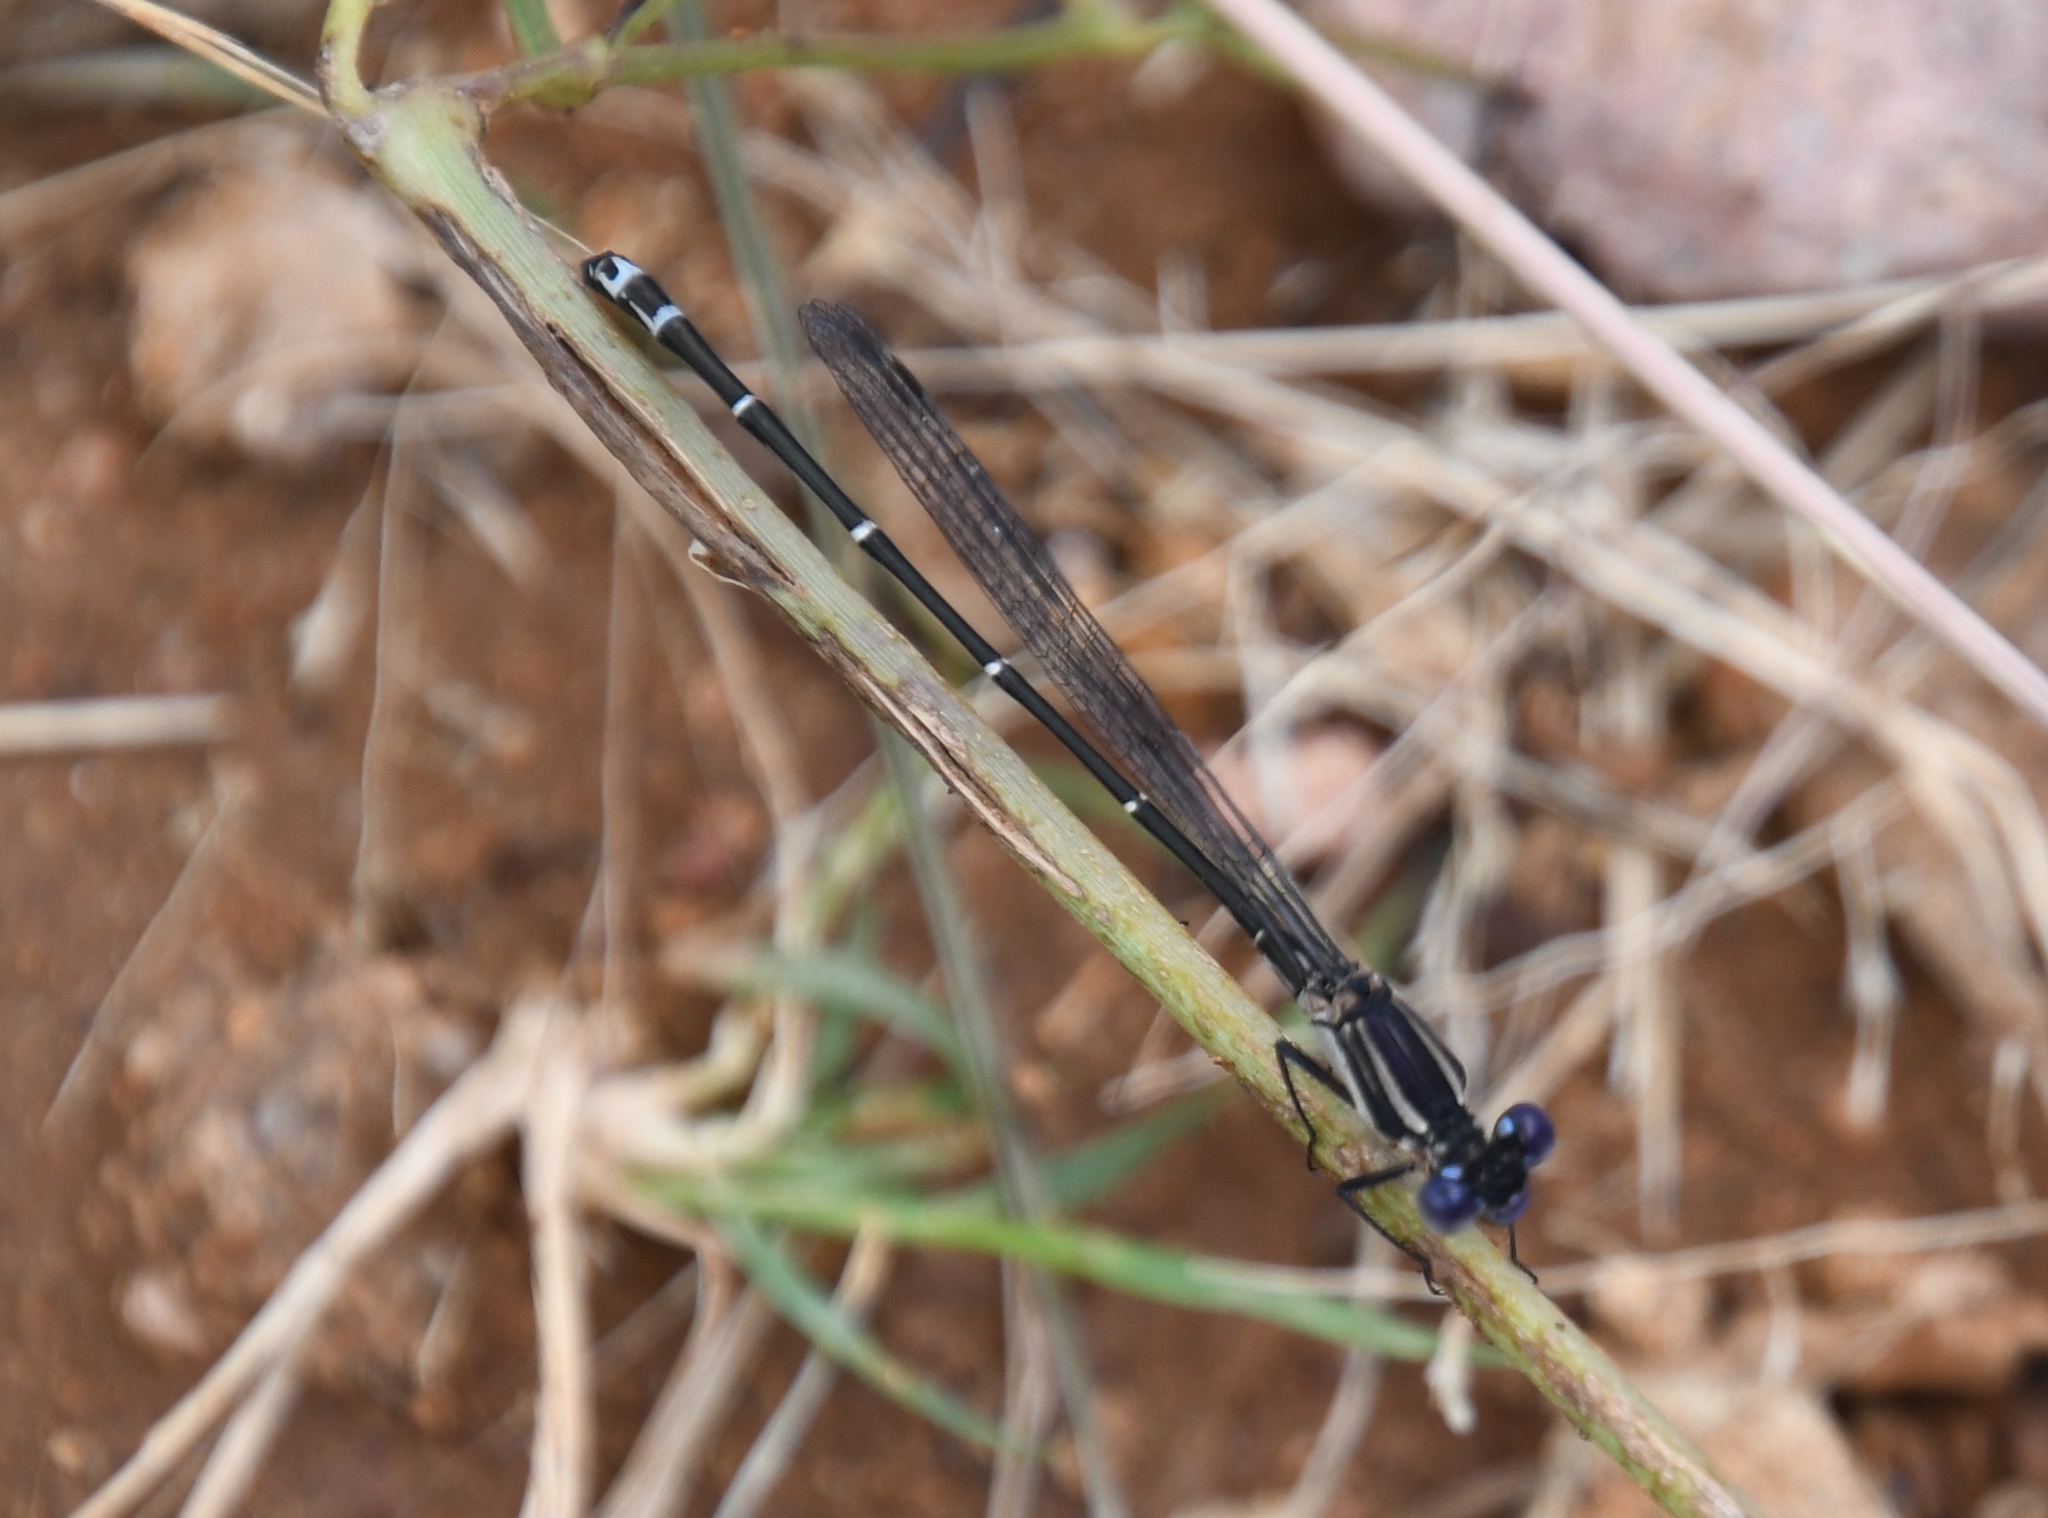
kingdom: Animalia
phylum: Arthropoda
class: Insecta
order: Odonata
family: Coenagrionidae
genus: Argia
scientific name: Argia translata
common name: Dusky dancer
